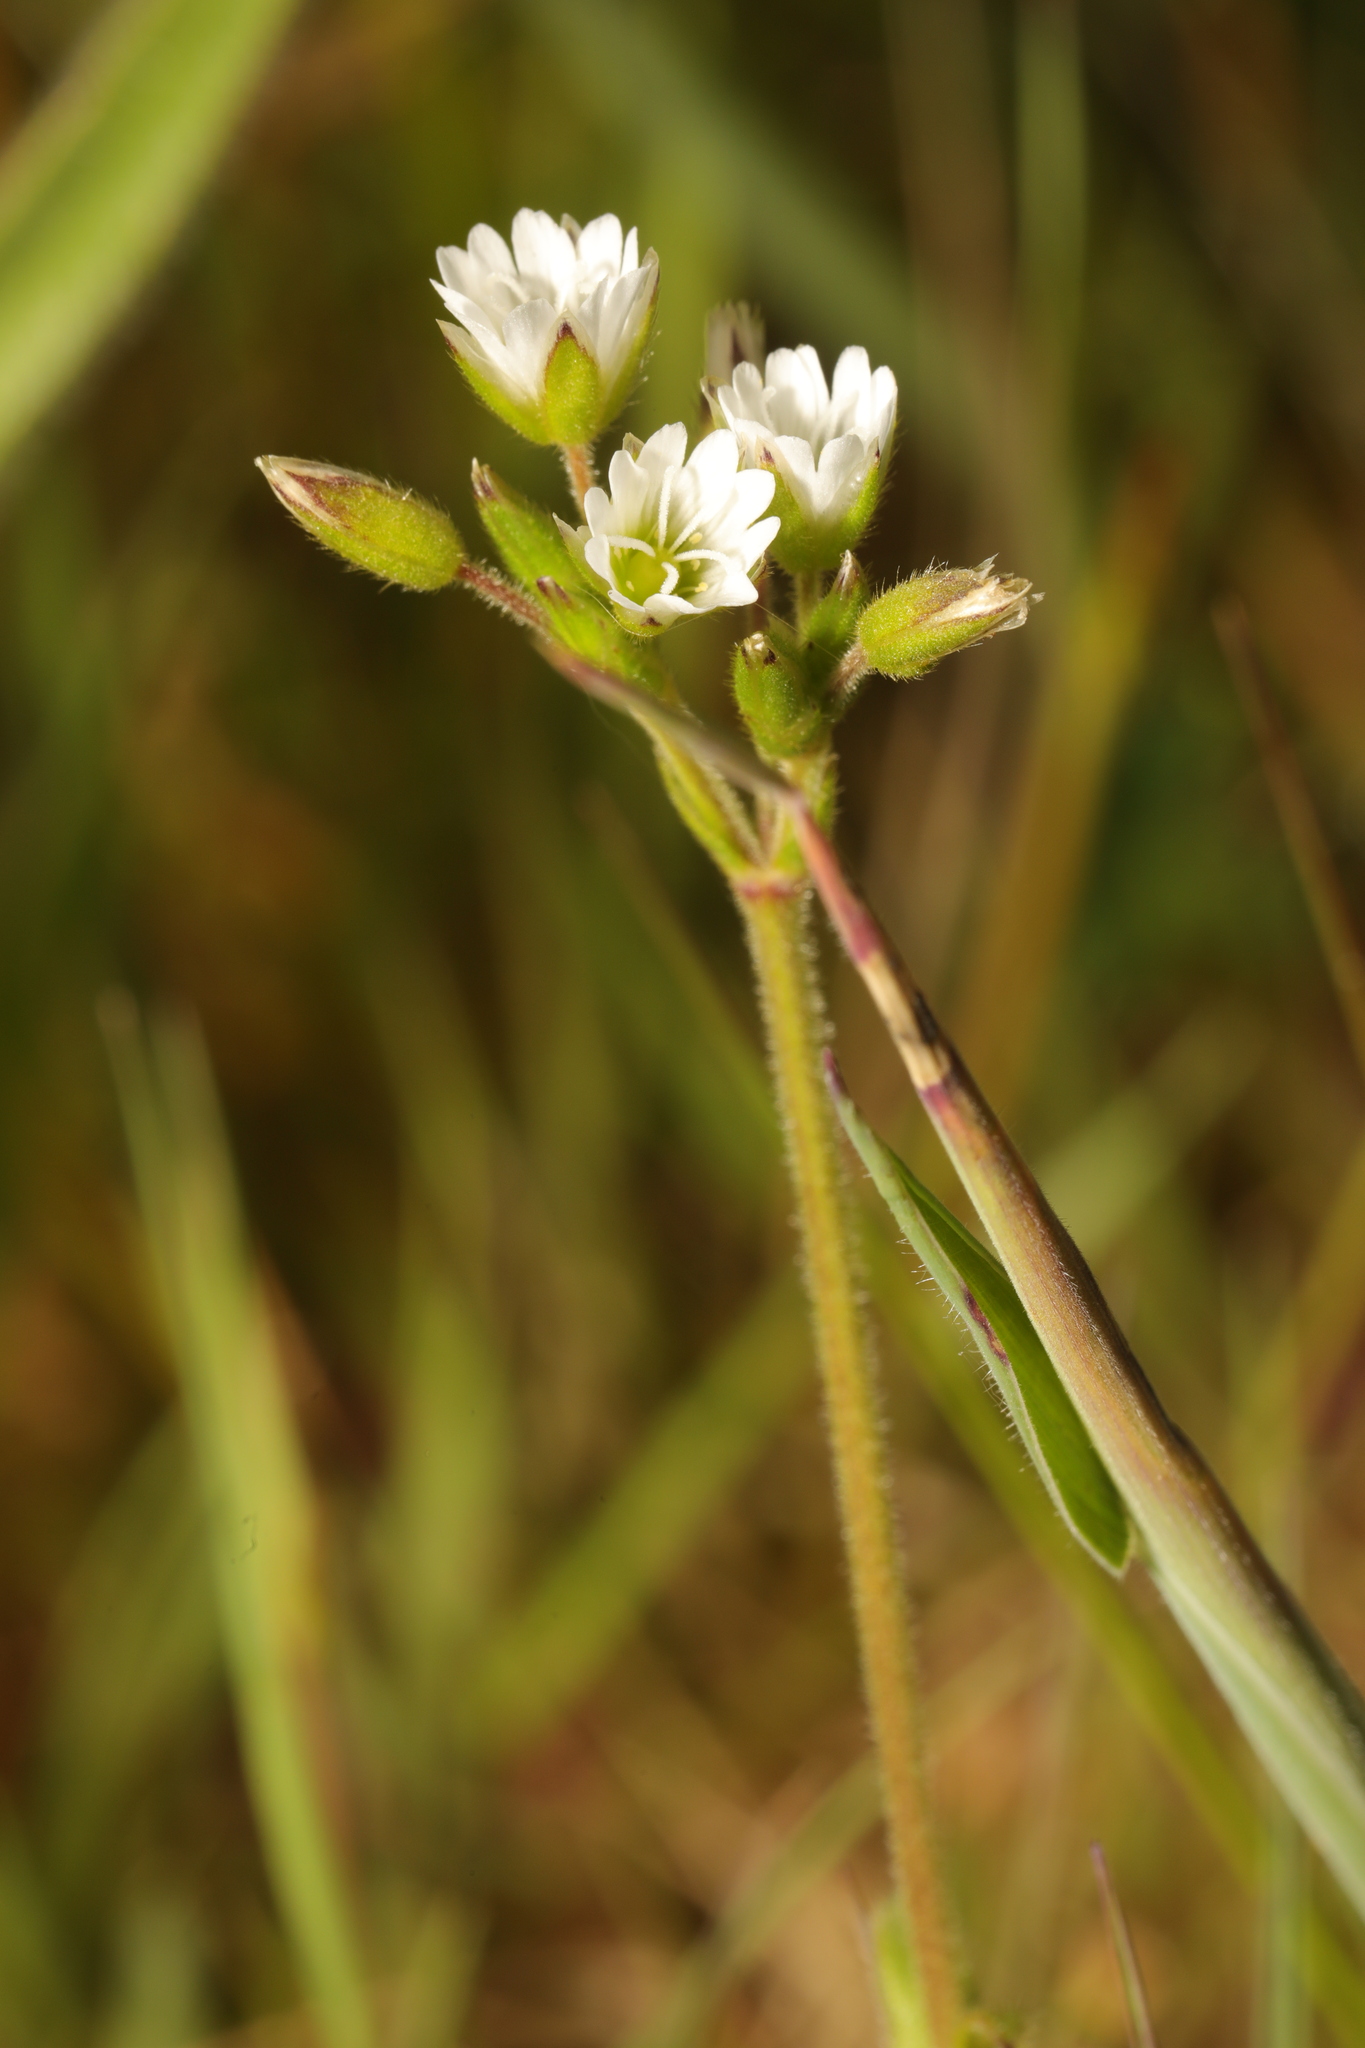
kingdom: Plantae
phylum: Tracheophyta
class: Magnoliopsida
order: Caryophyllales
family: Caryophyllaceae
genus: Cerastium
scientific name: Cerastium fontanum
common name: Common mouse-ear
